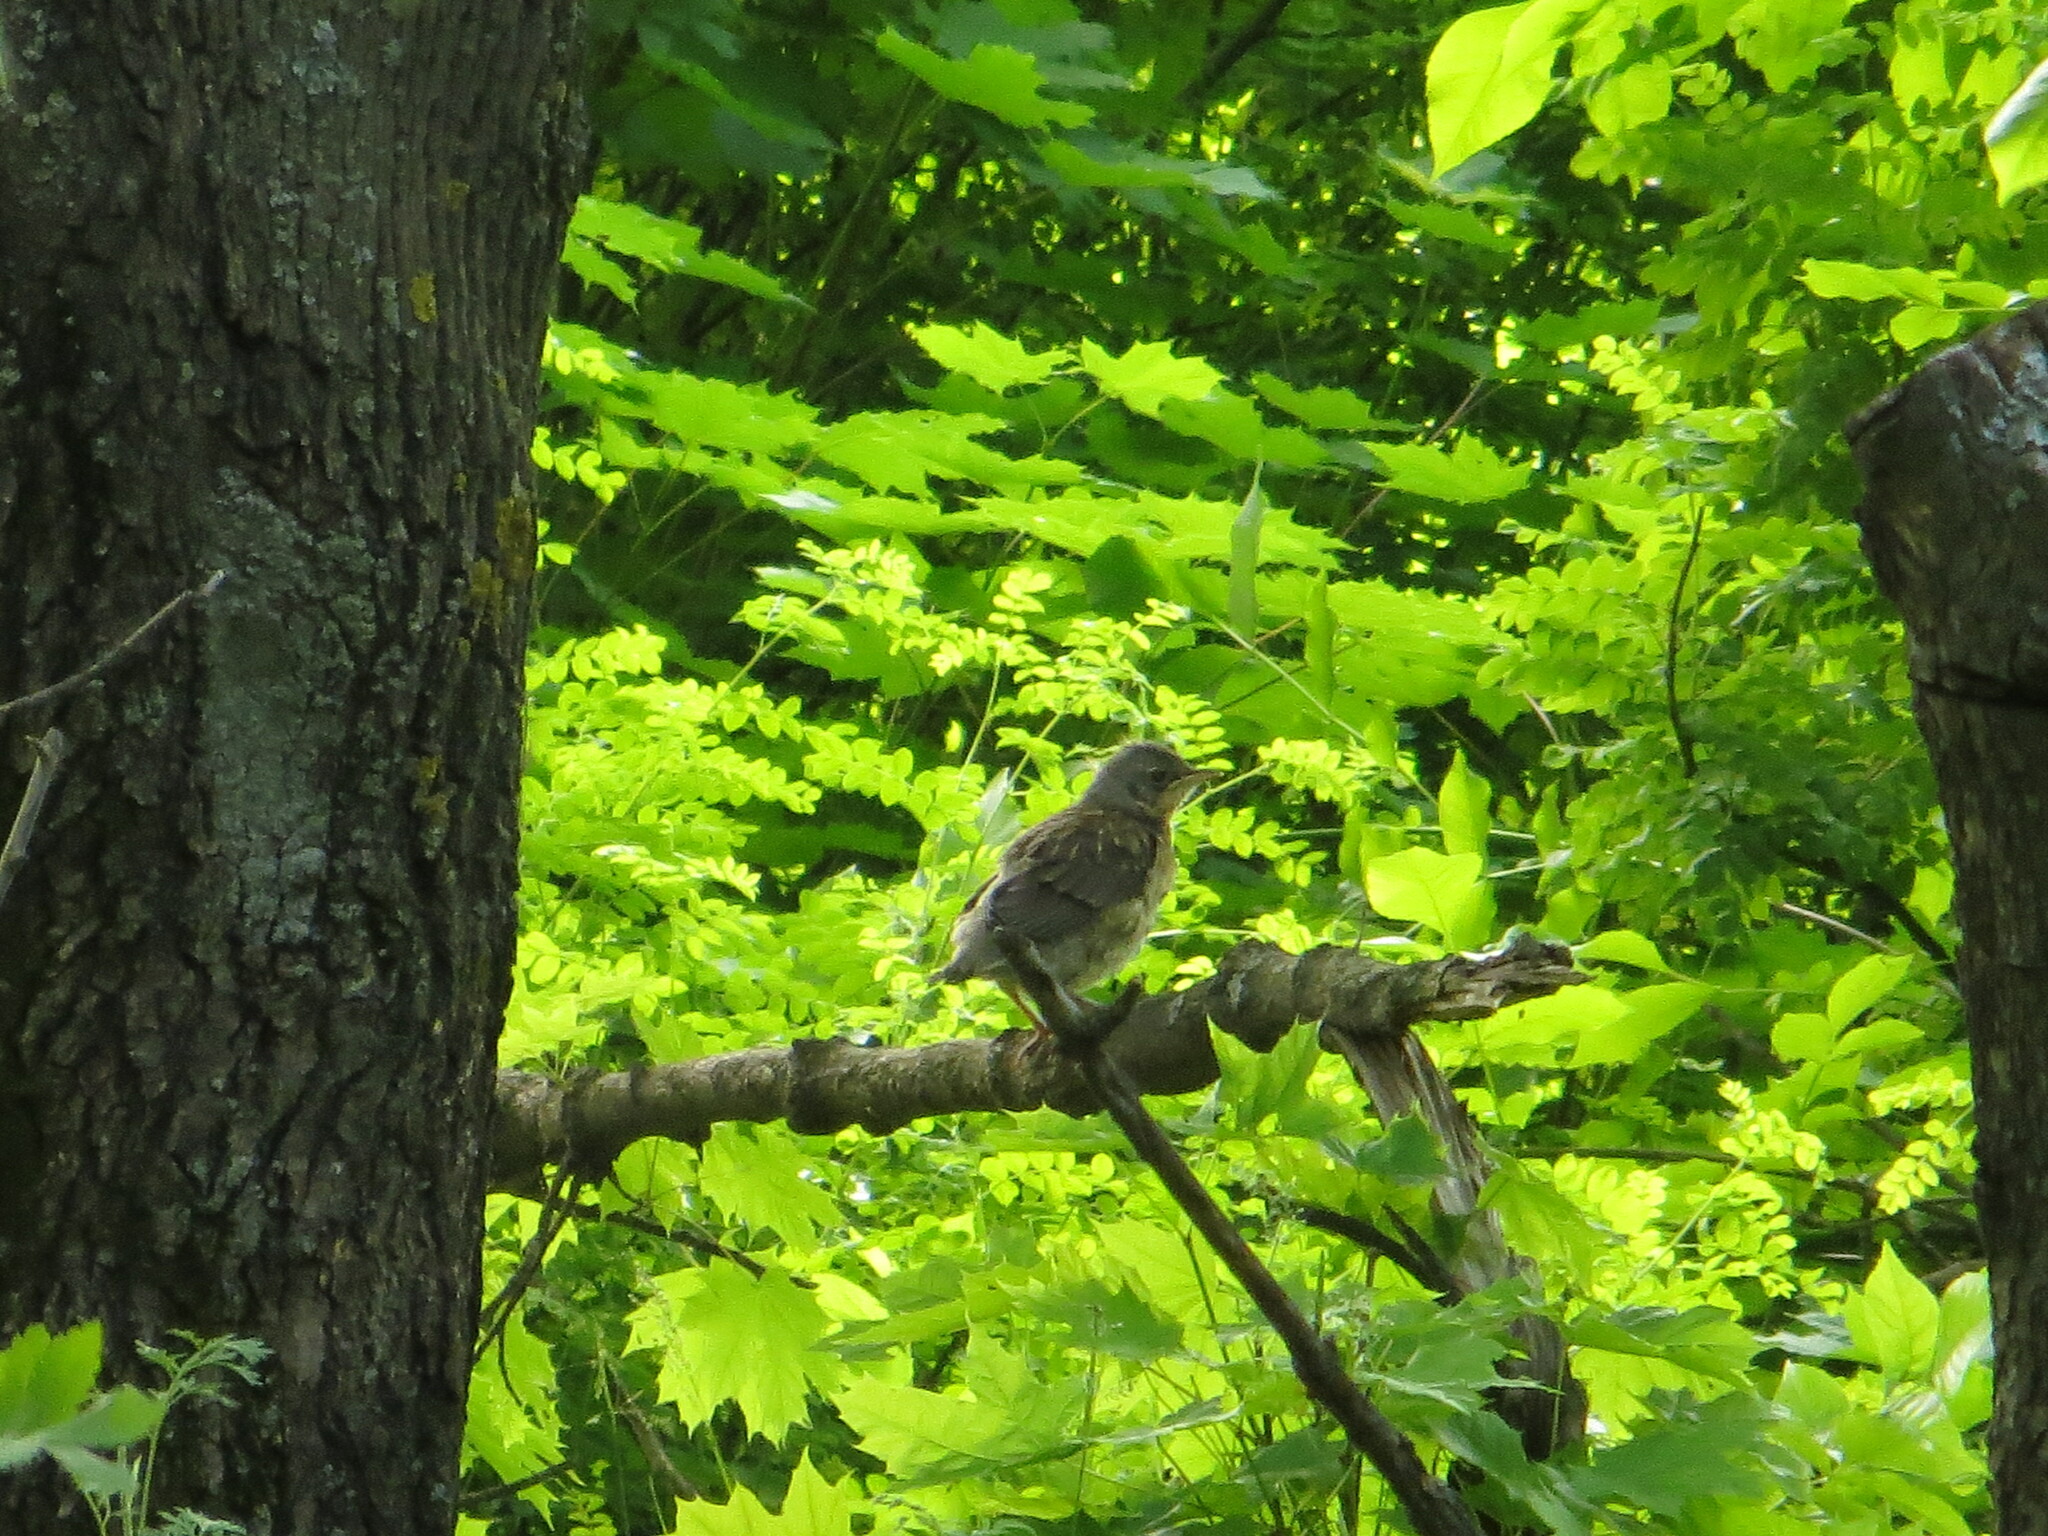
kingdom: Animalia
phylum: Chordata
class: Aves
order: Passeriformes
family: Turdidae
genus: Turdus
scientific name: Turdus pilaris
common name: Fieldfare
